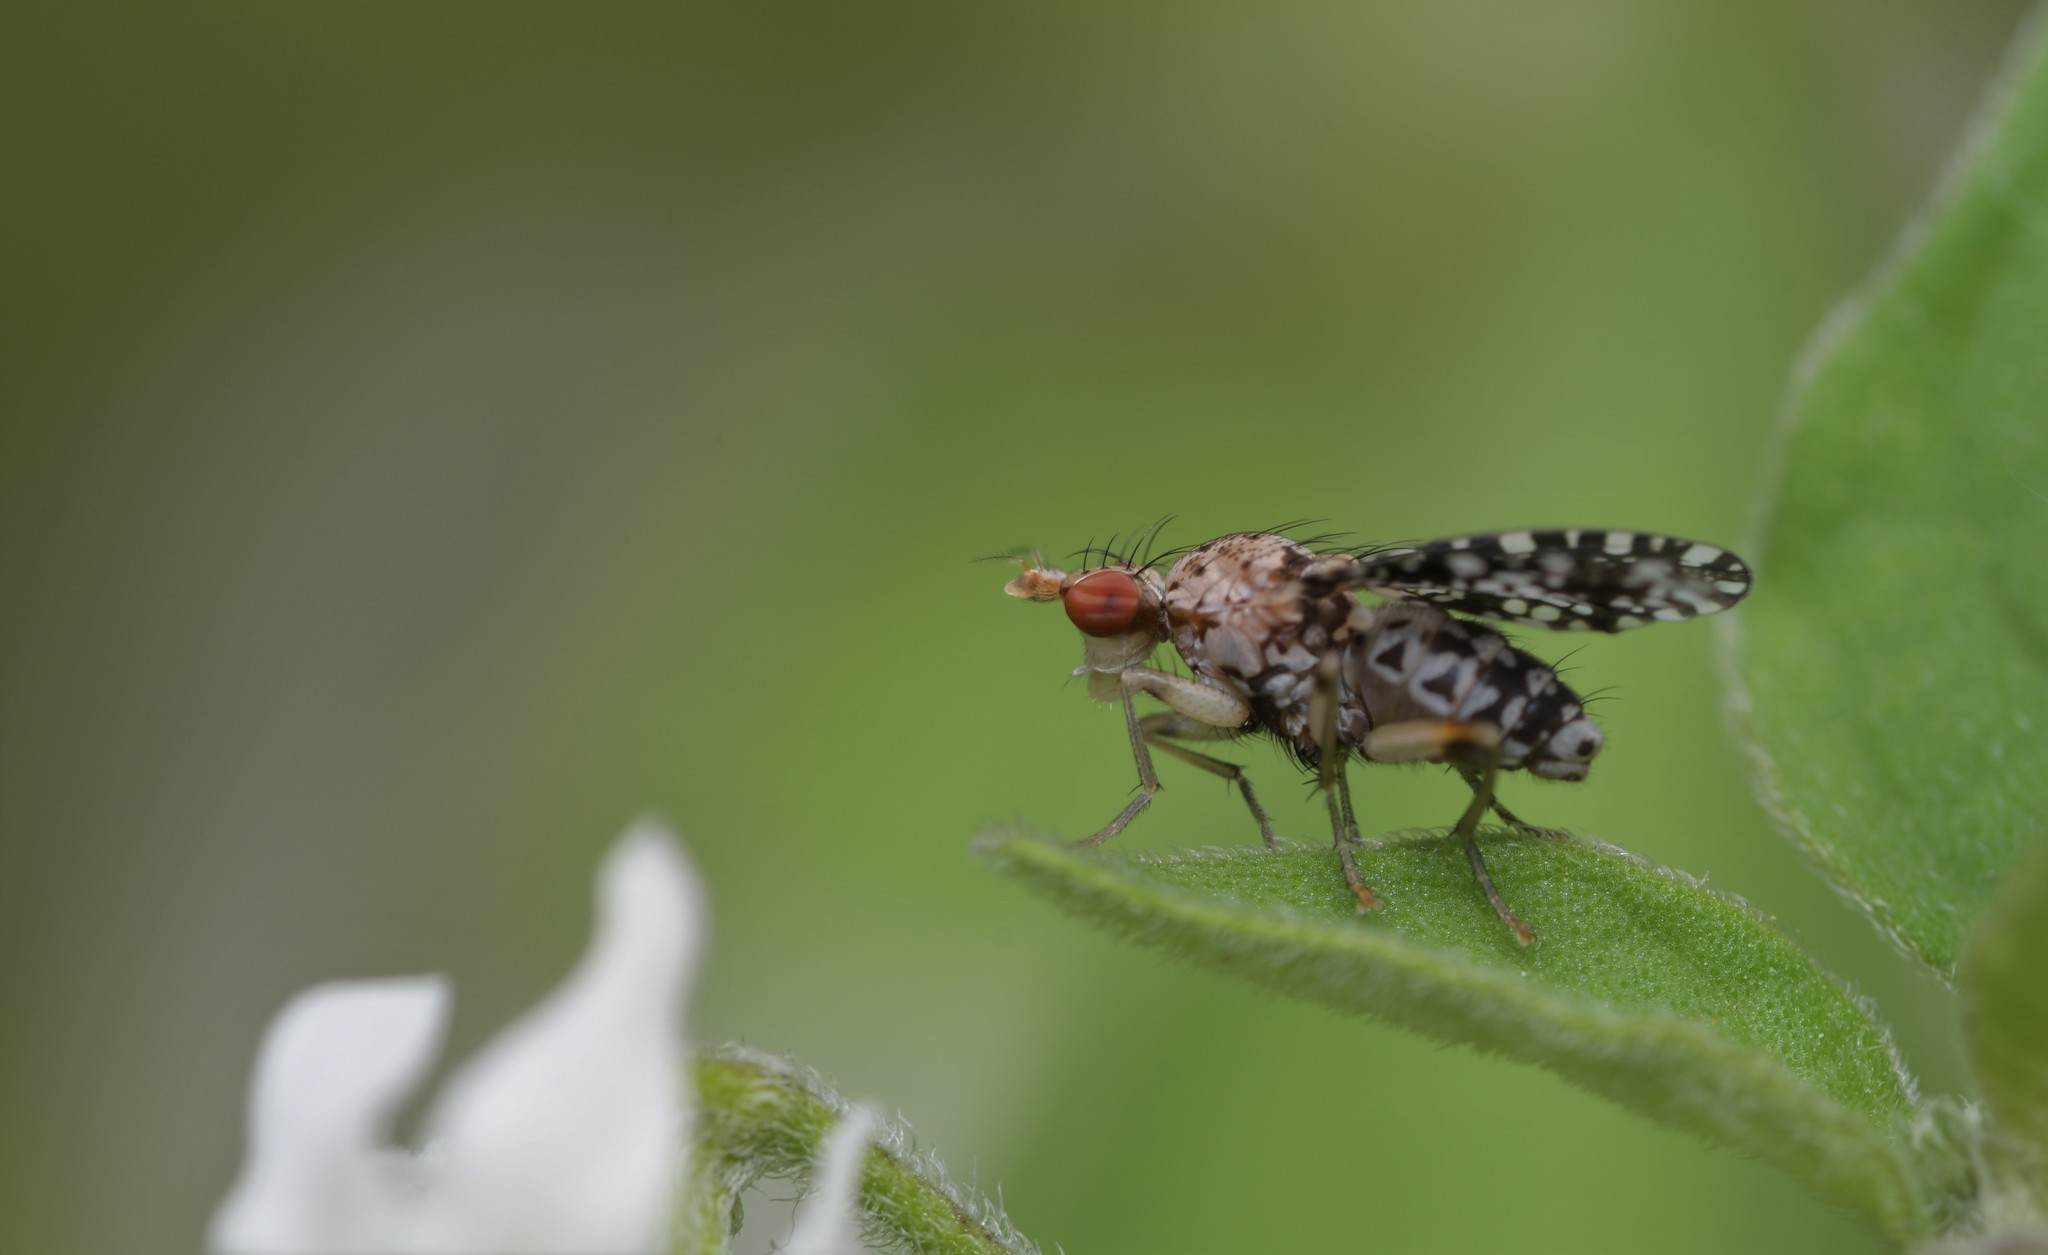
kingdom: Animalia
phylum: Arthropoda
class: Insecta
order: Diptera
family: Sciomyzidae
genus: Trypetoptera
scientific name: Trypetoptera punctulata
